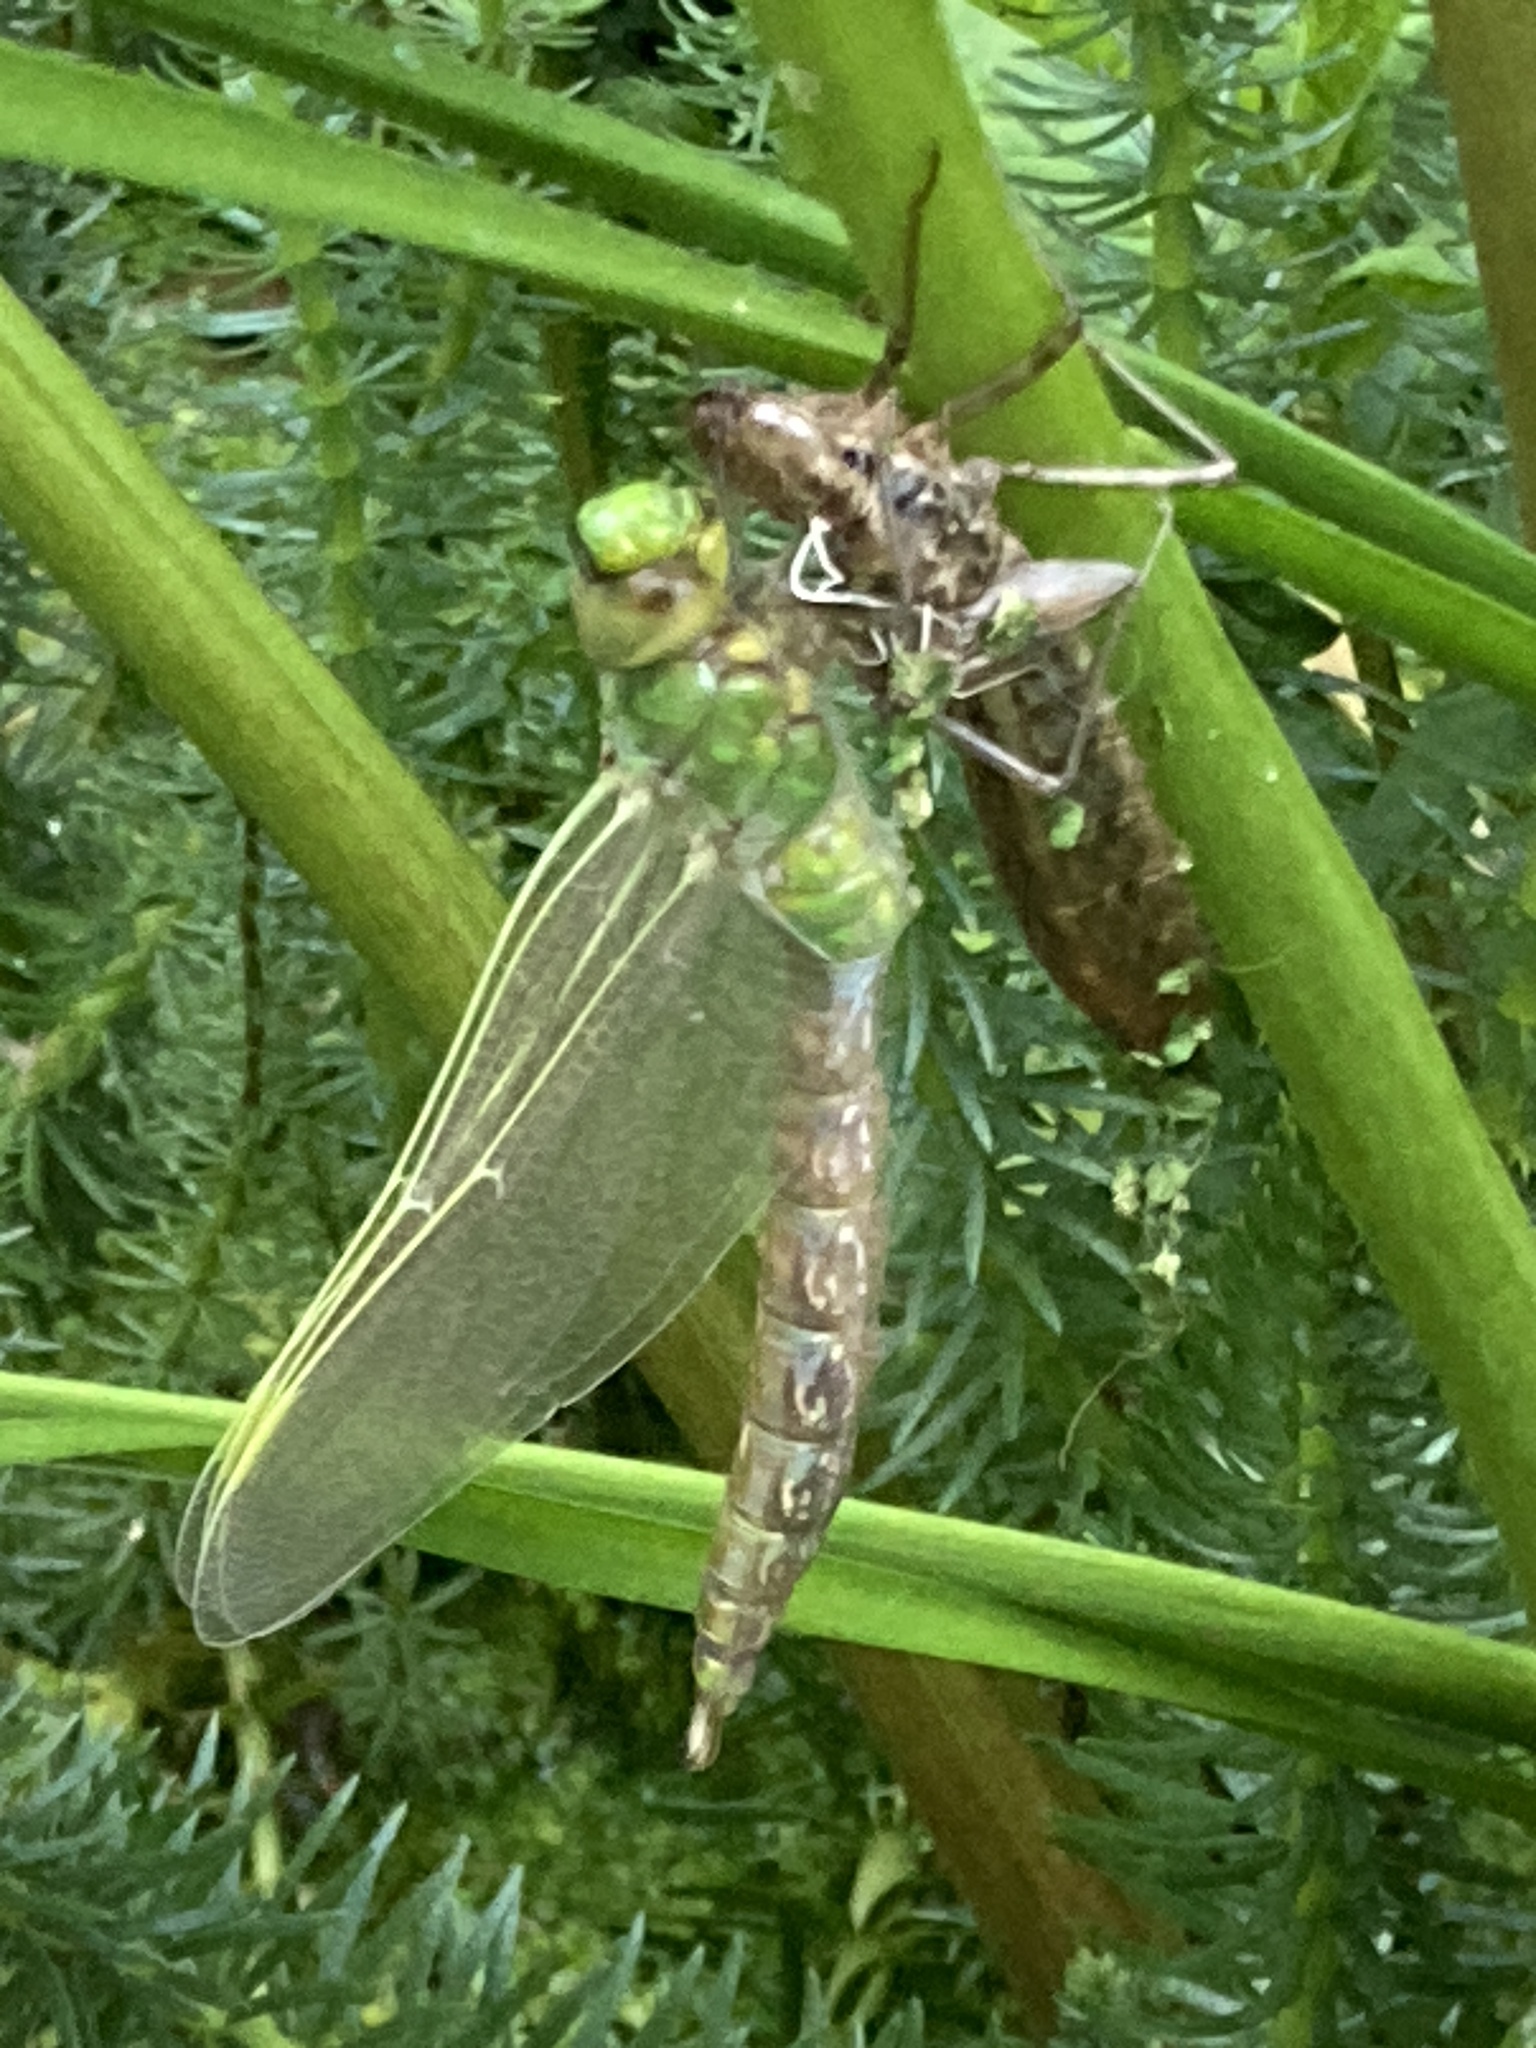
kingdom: Animalia
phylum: Arthropoda
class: Insecta
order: Odonata
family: Aeshnidae
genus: Anax
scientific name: Anax imperator
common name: Emperor dragonfly
